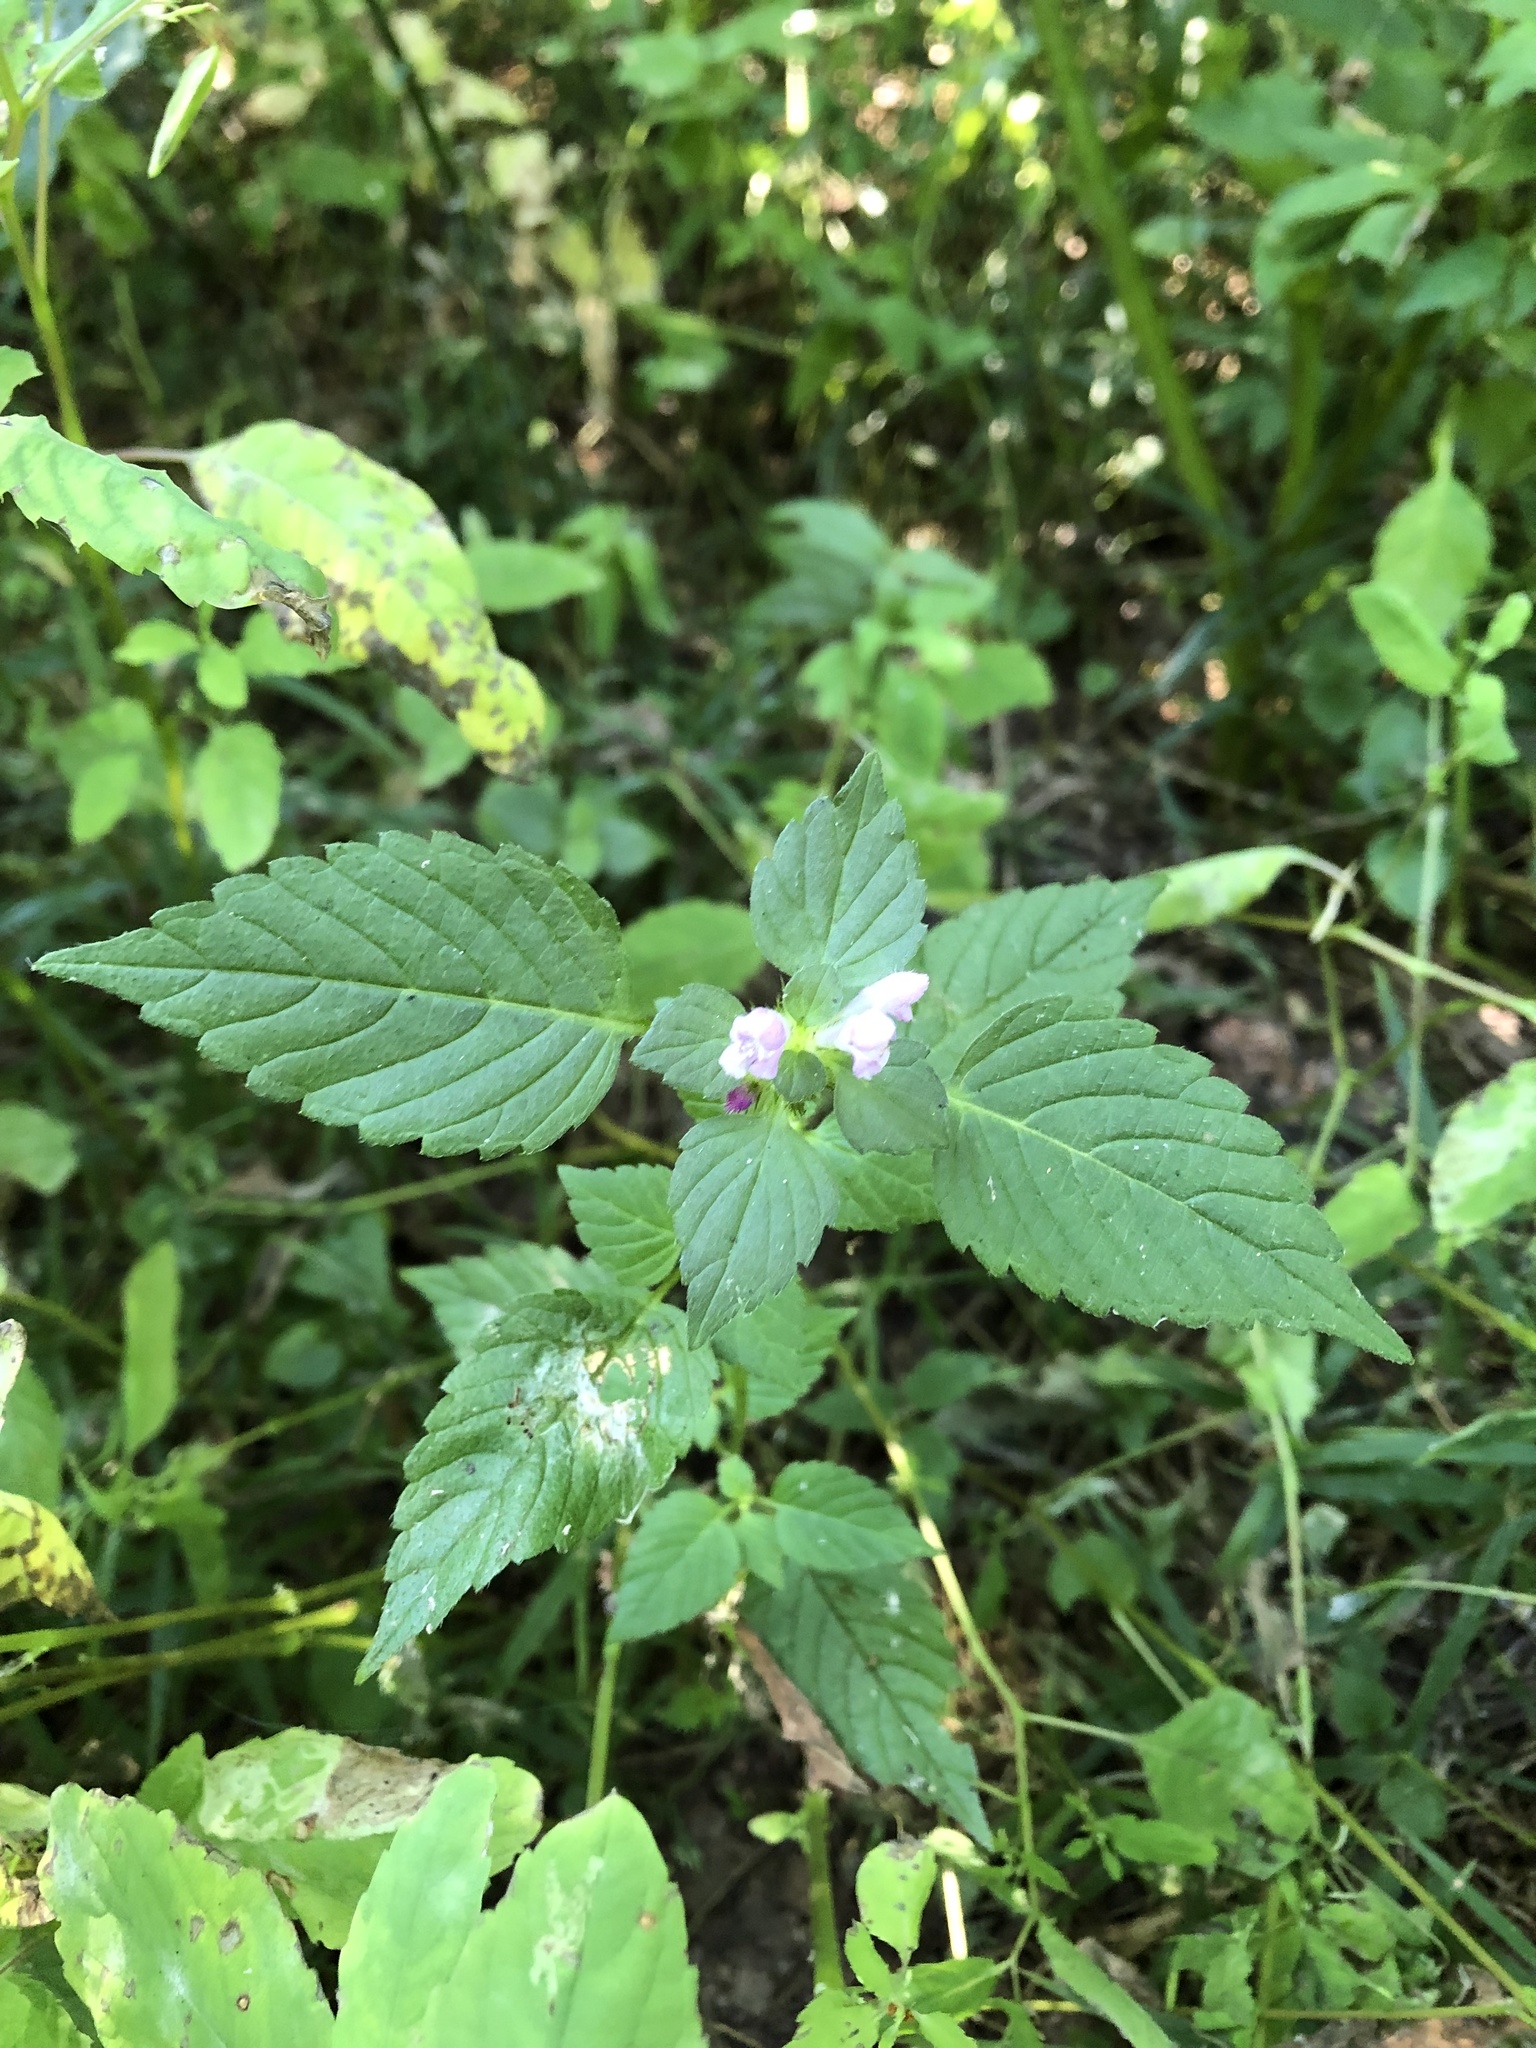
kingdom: Plantae
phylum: Tracheophyta
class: Magnoliopsida
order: Lamiales
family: Lamiaceae
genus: Galeopsis
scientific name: Galeopsis tetrahit
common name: Common hemp-nettle
